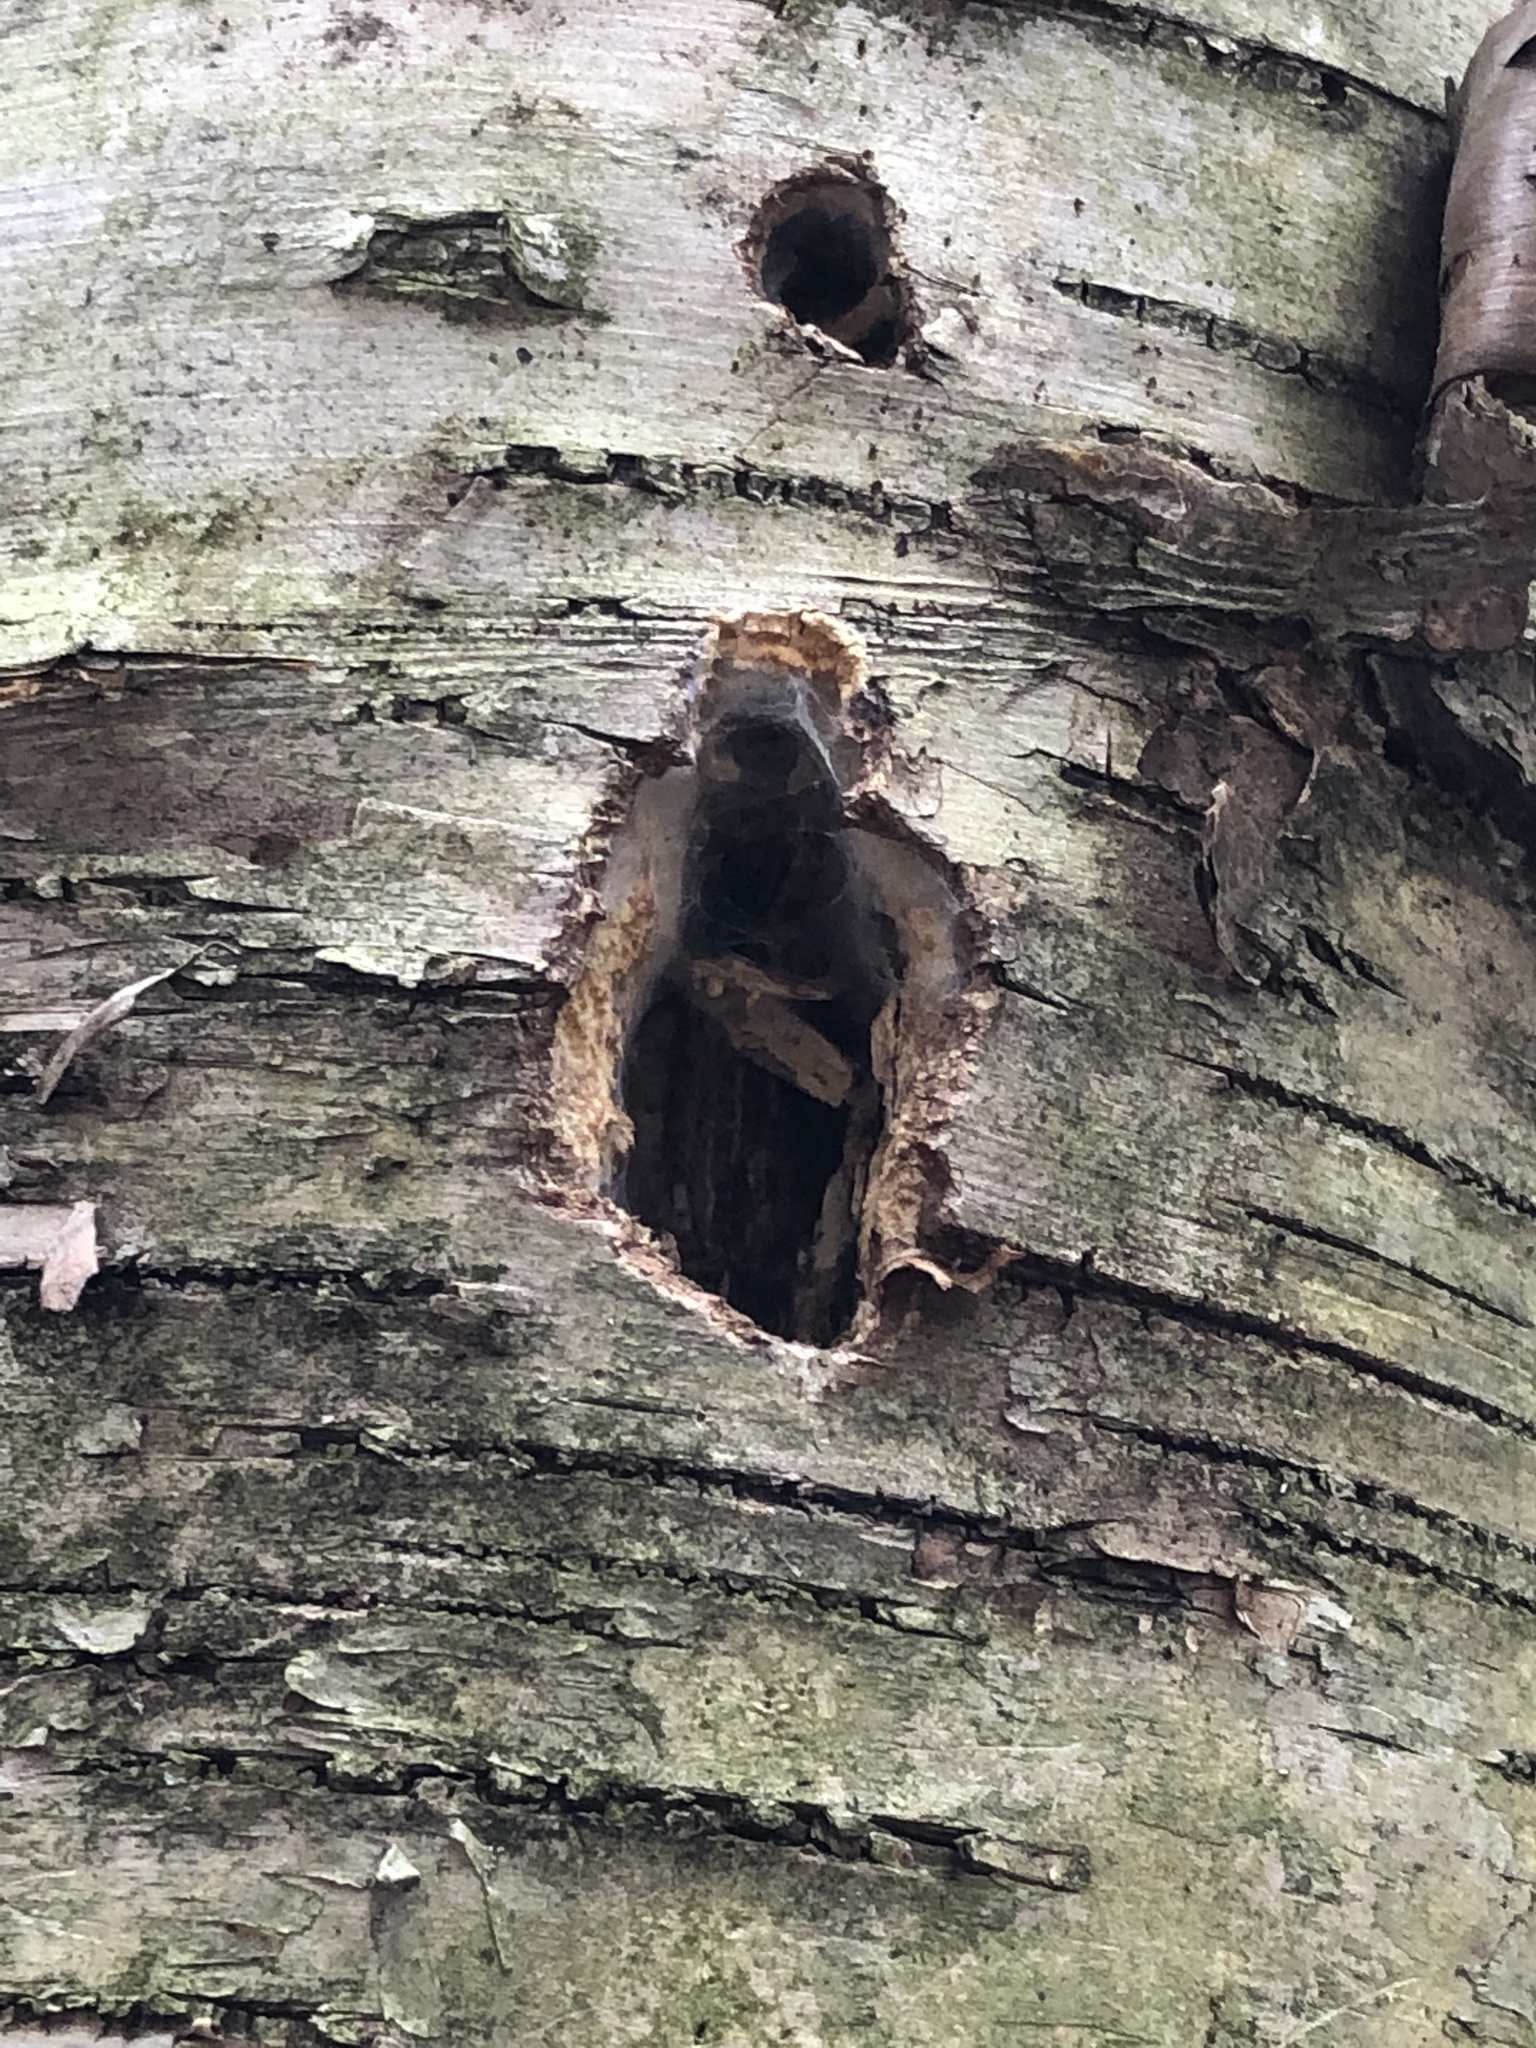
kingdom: Animalia
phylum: Chordata
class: Aves
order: Piciformes
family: Picidae
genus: Dryocopus
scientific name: Dryocopus pileatus
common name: Pileated woodpecker
